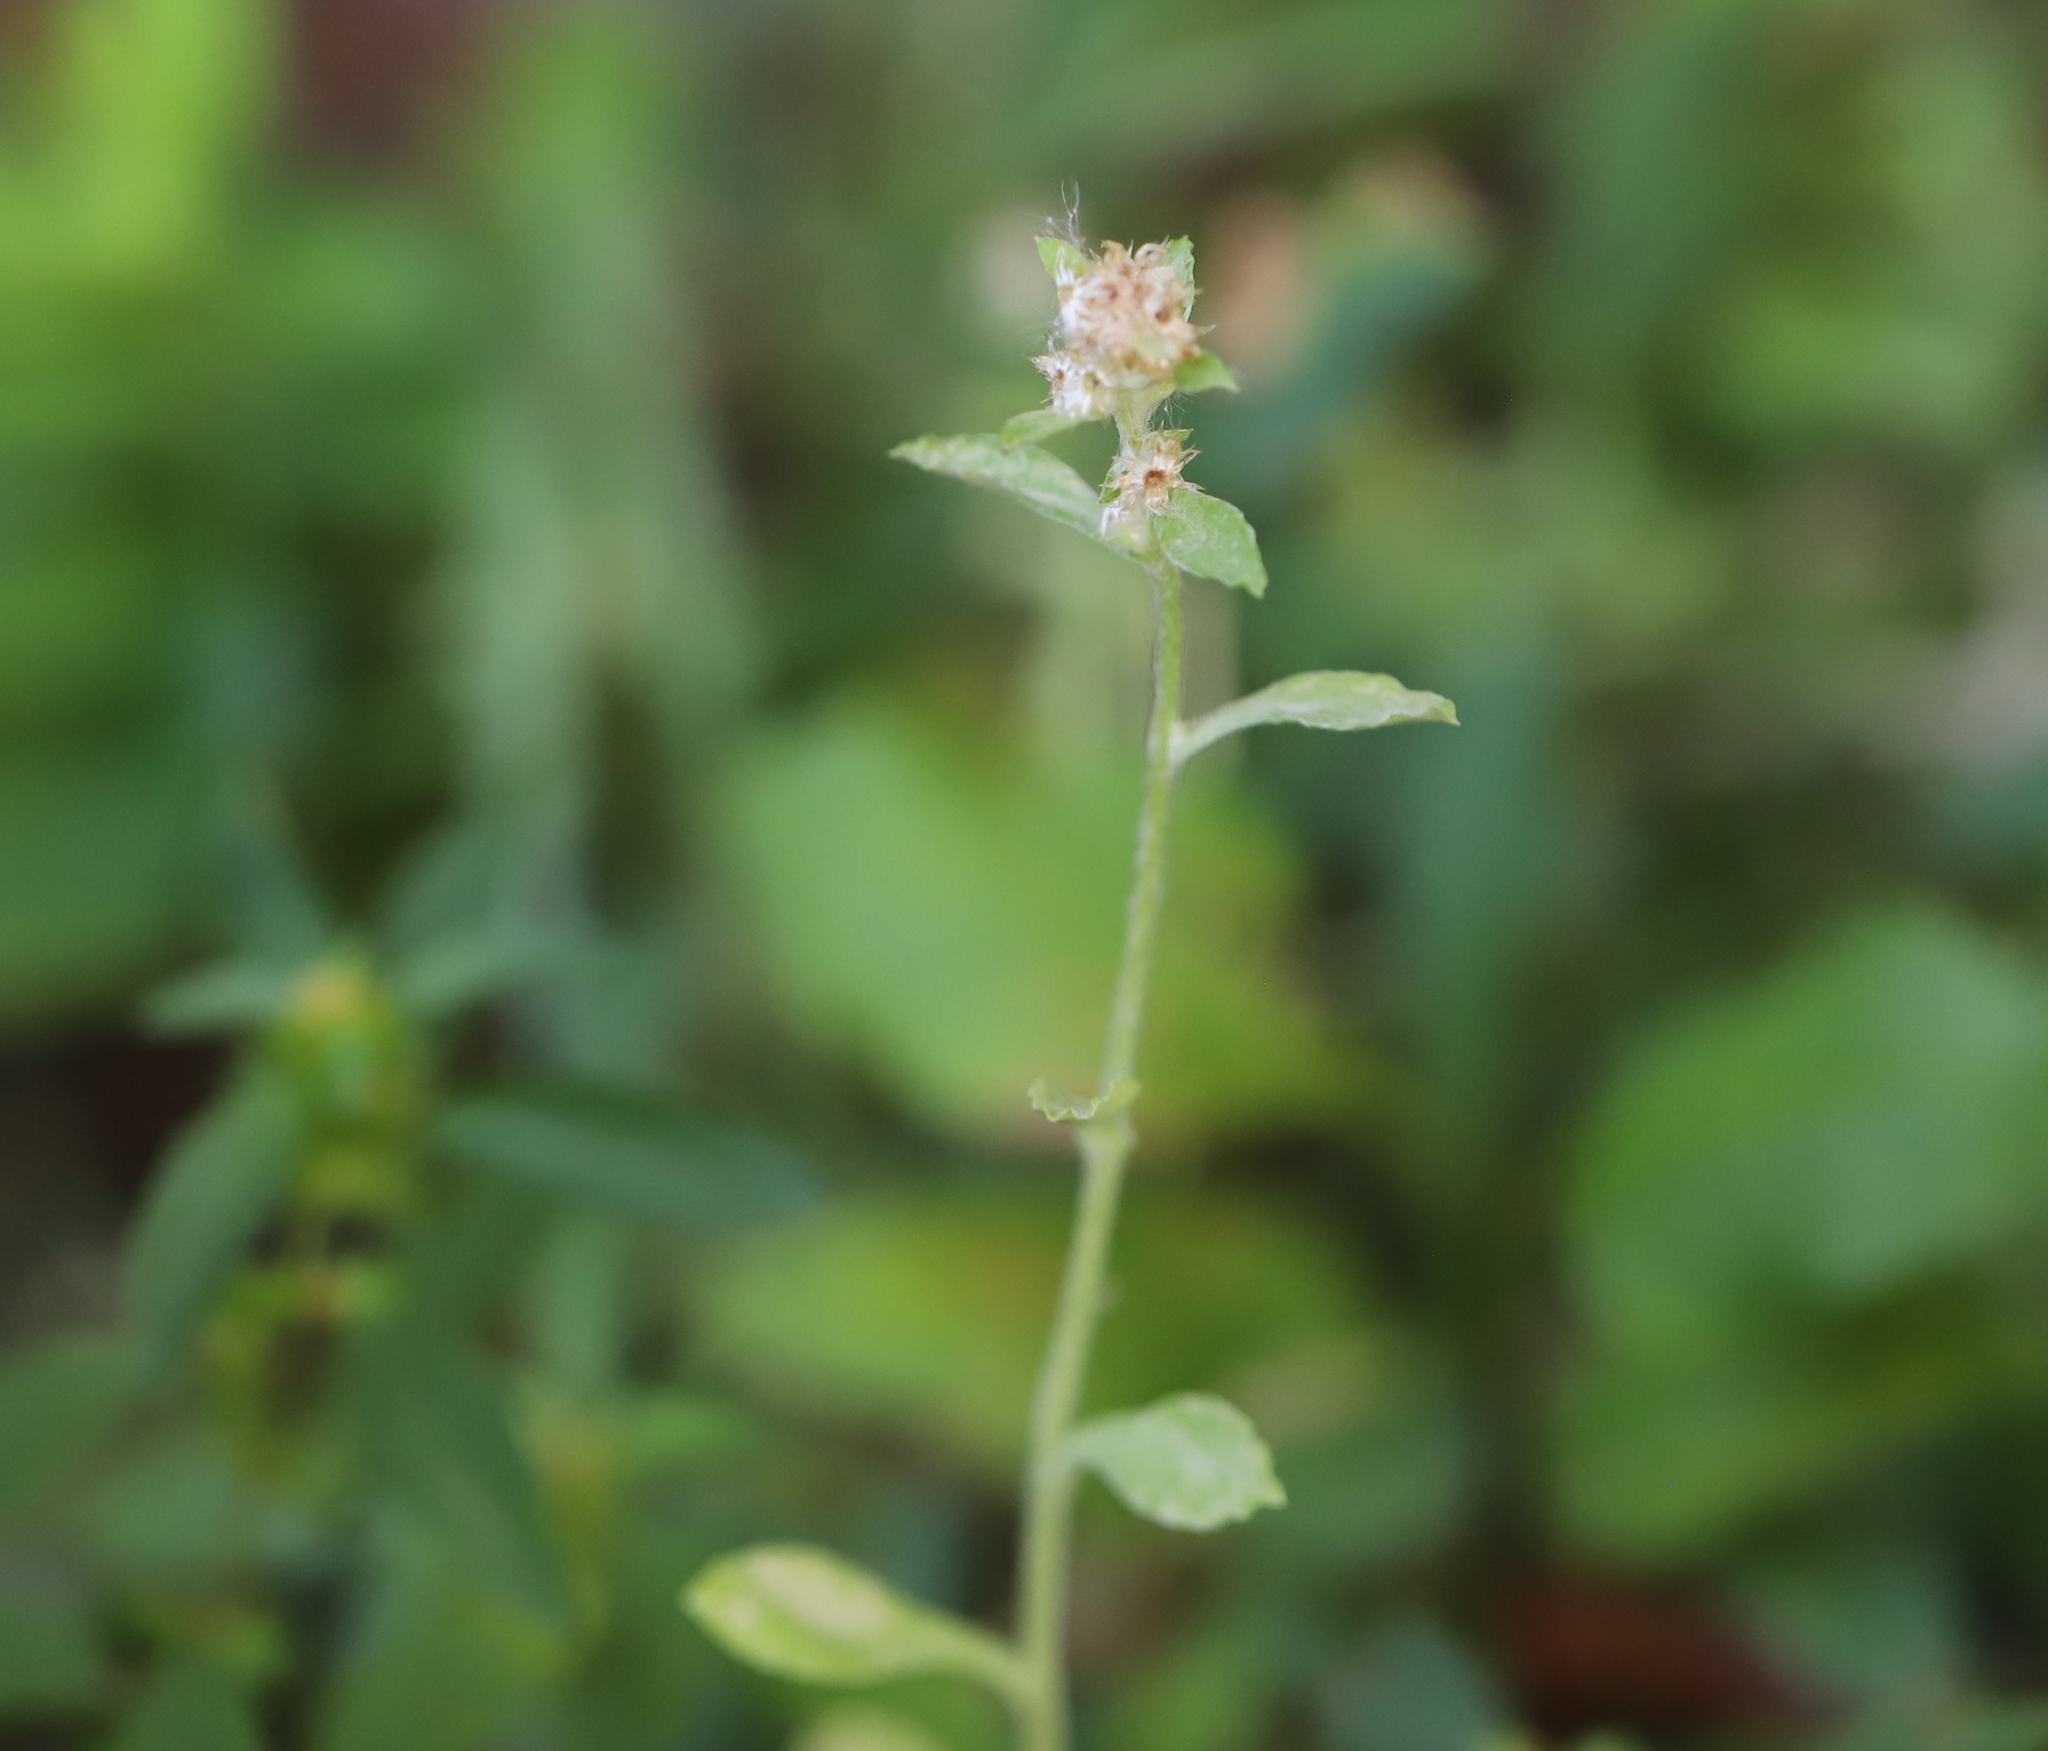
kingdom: Plantae
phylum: Tracheophyta
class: Magnoliopsida
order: Asterales
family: Asteraceae
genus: Gamochaeta
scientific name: Gamochaeta pensylvanica
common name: Pennsylvania everlasting
